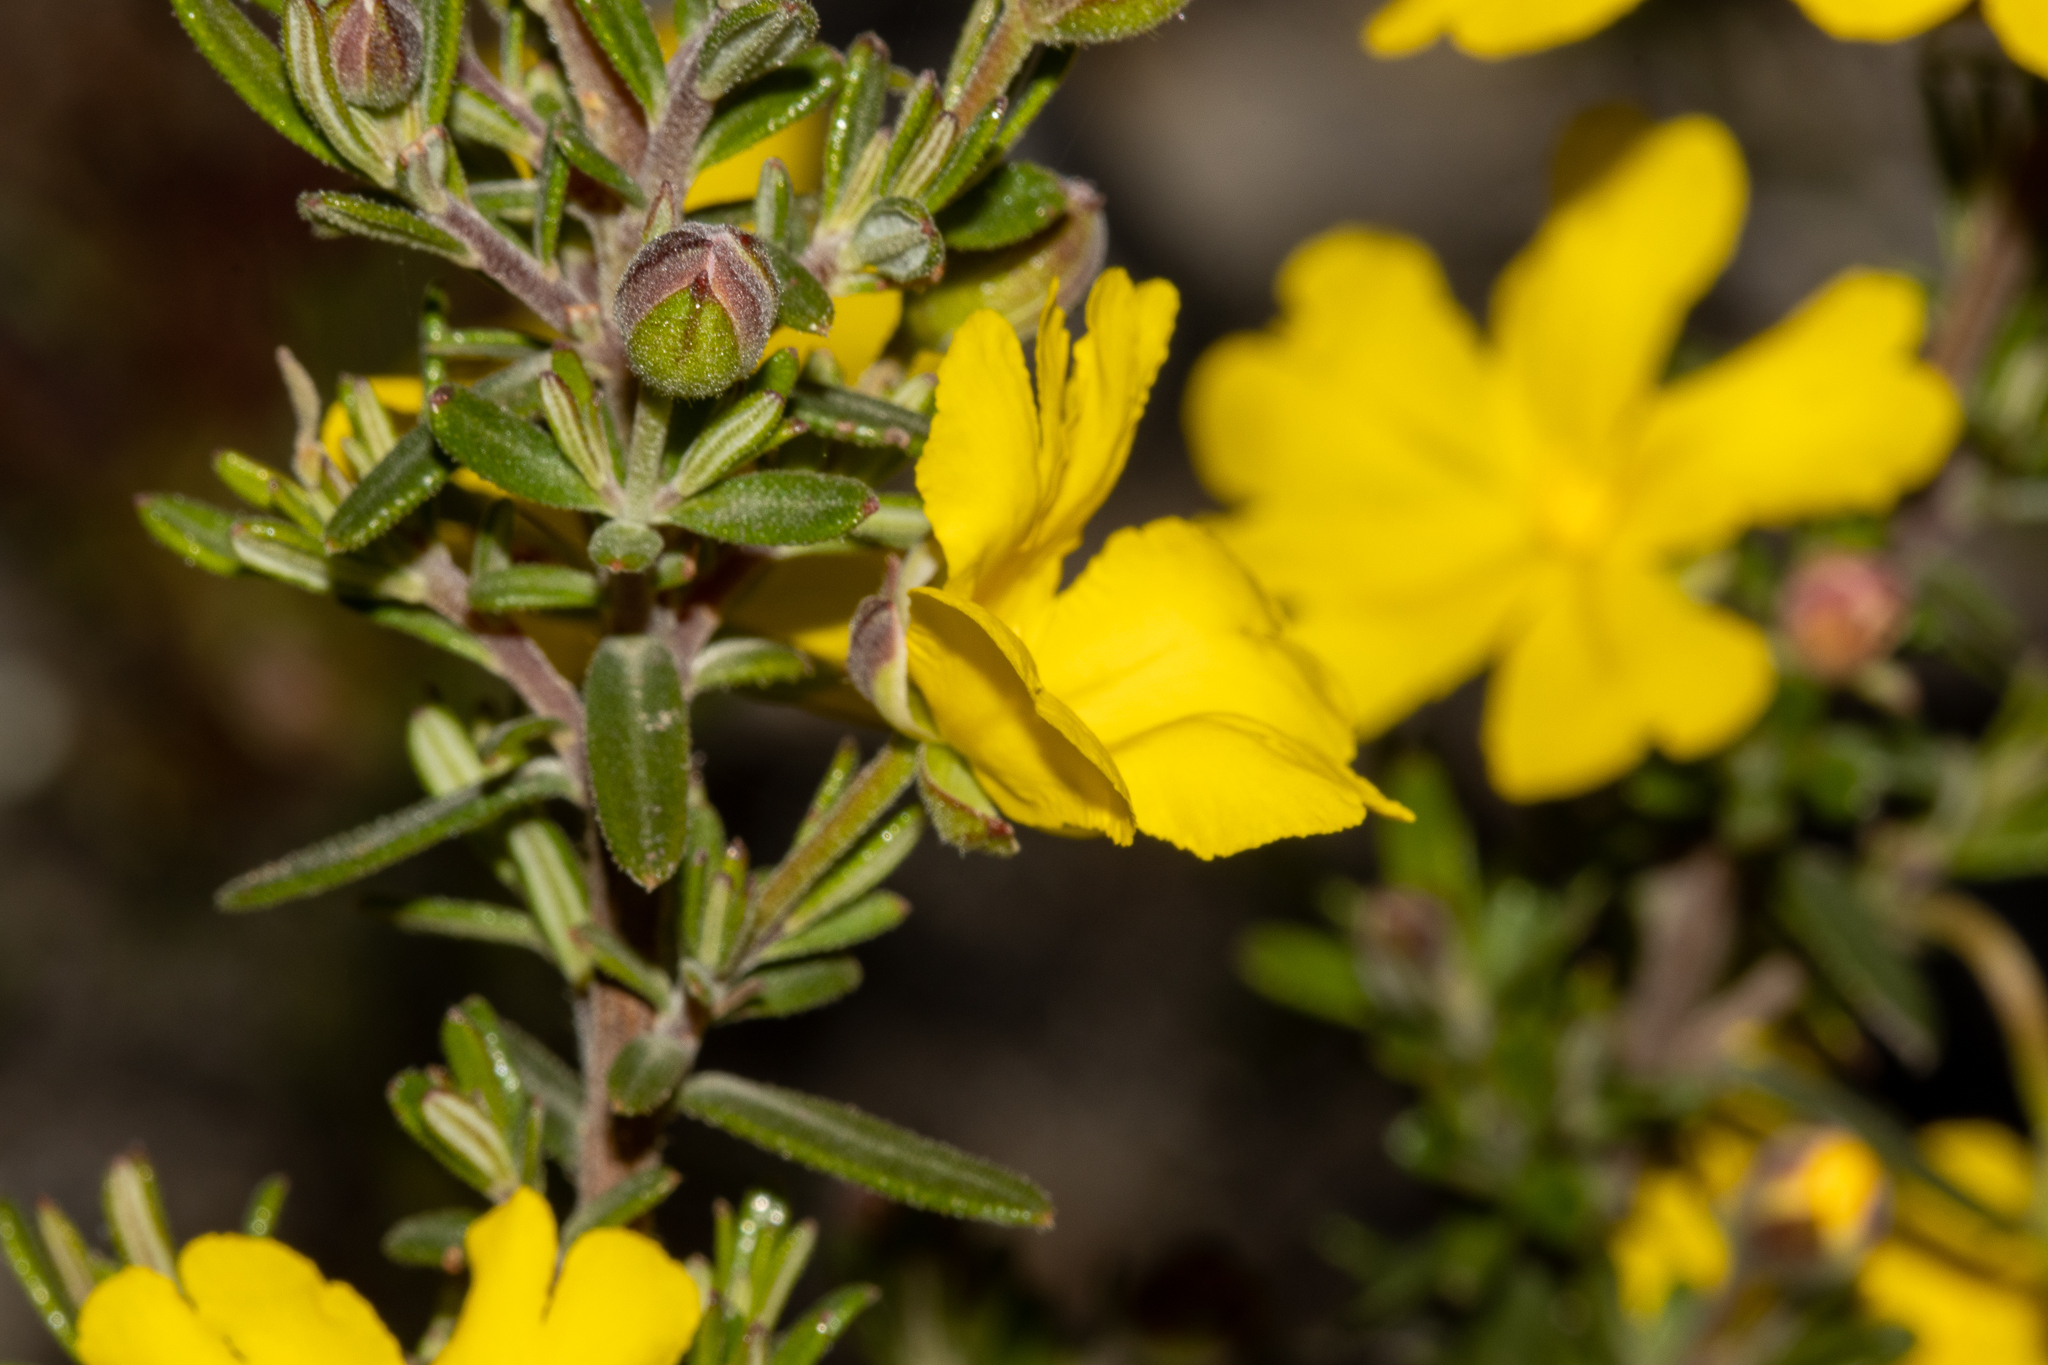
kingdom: Plantae
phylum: Tracheophyta
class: Magnoliopsida
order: Dilleniales
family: Dilleniaceae
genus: Hibbertia
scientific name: Hibbertia hypericoides
